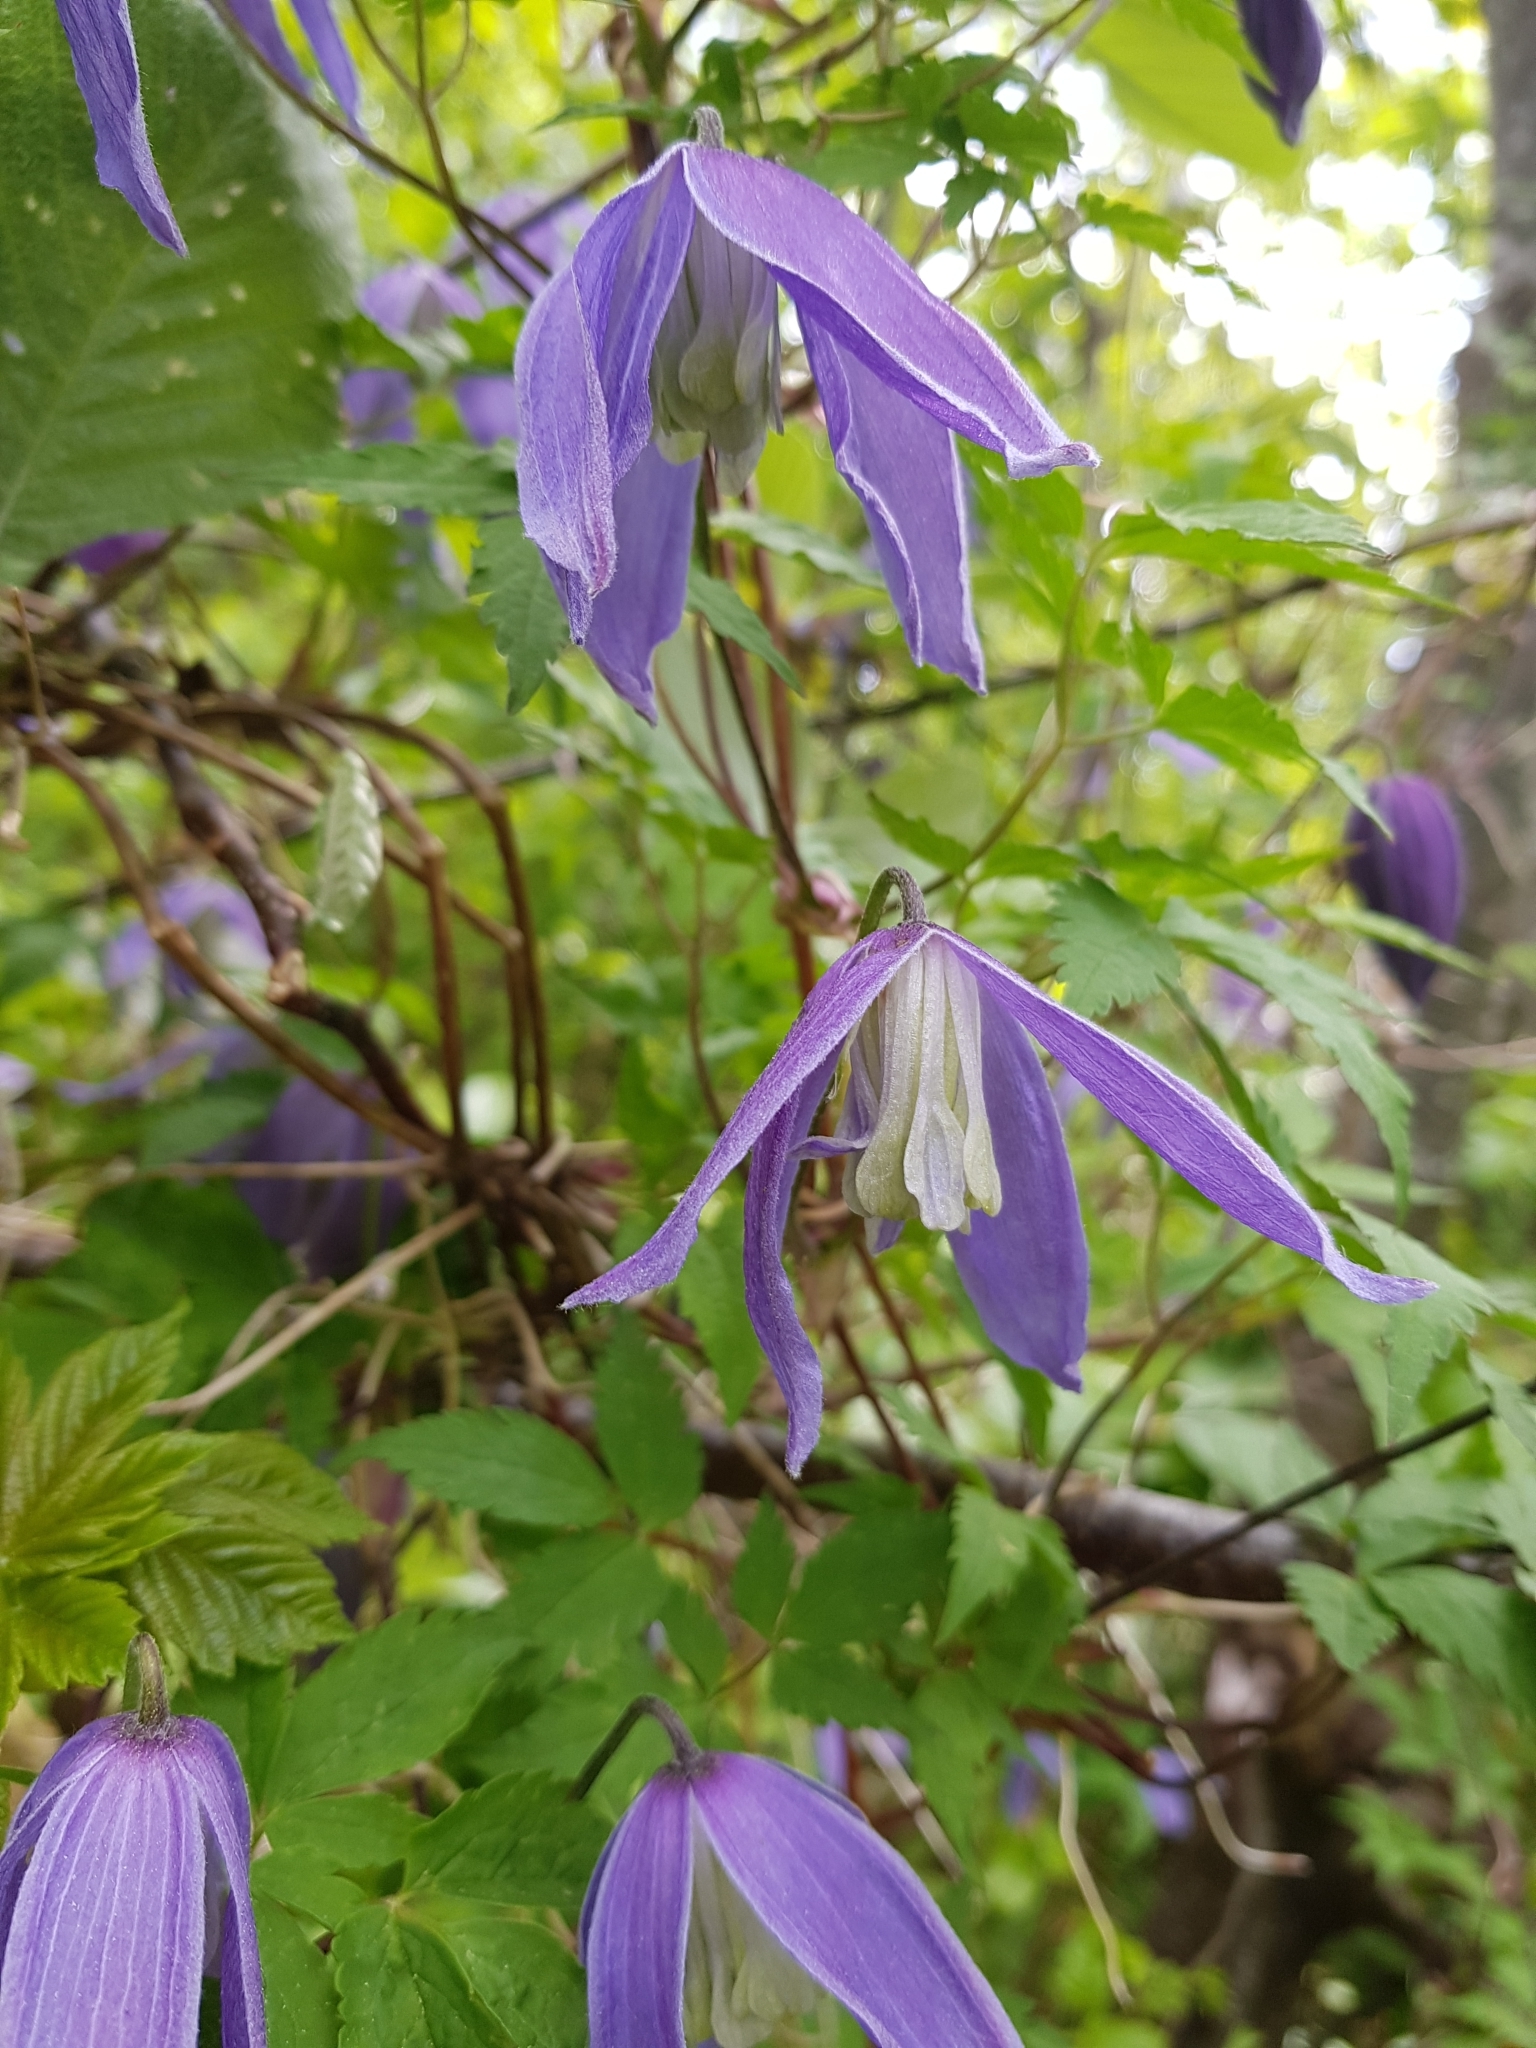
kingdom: Plantae
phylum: Tracheophyta
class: Magnoliopsida
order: Ranunculales
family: Ranunculaceae
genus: Clematis
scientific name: Clematis alpina
